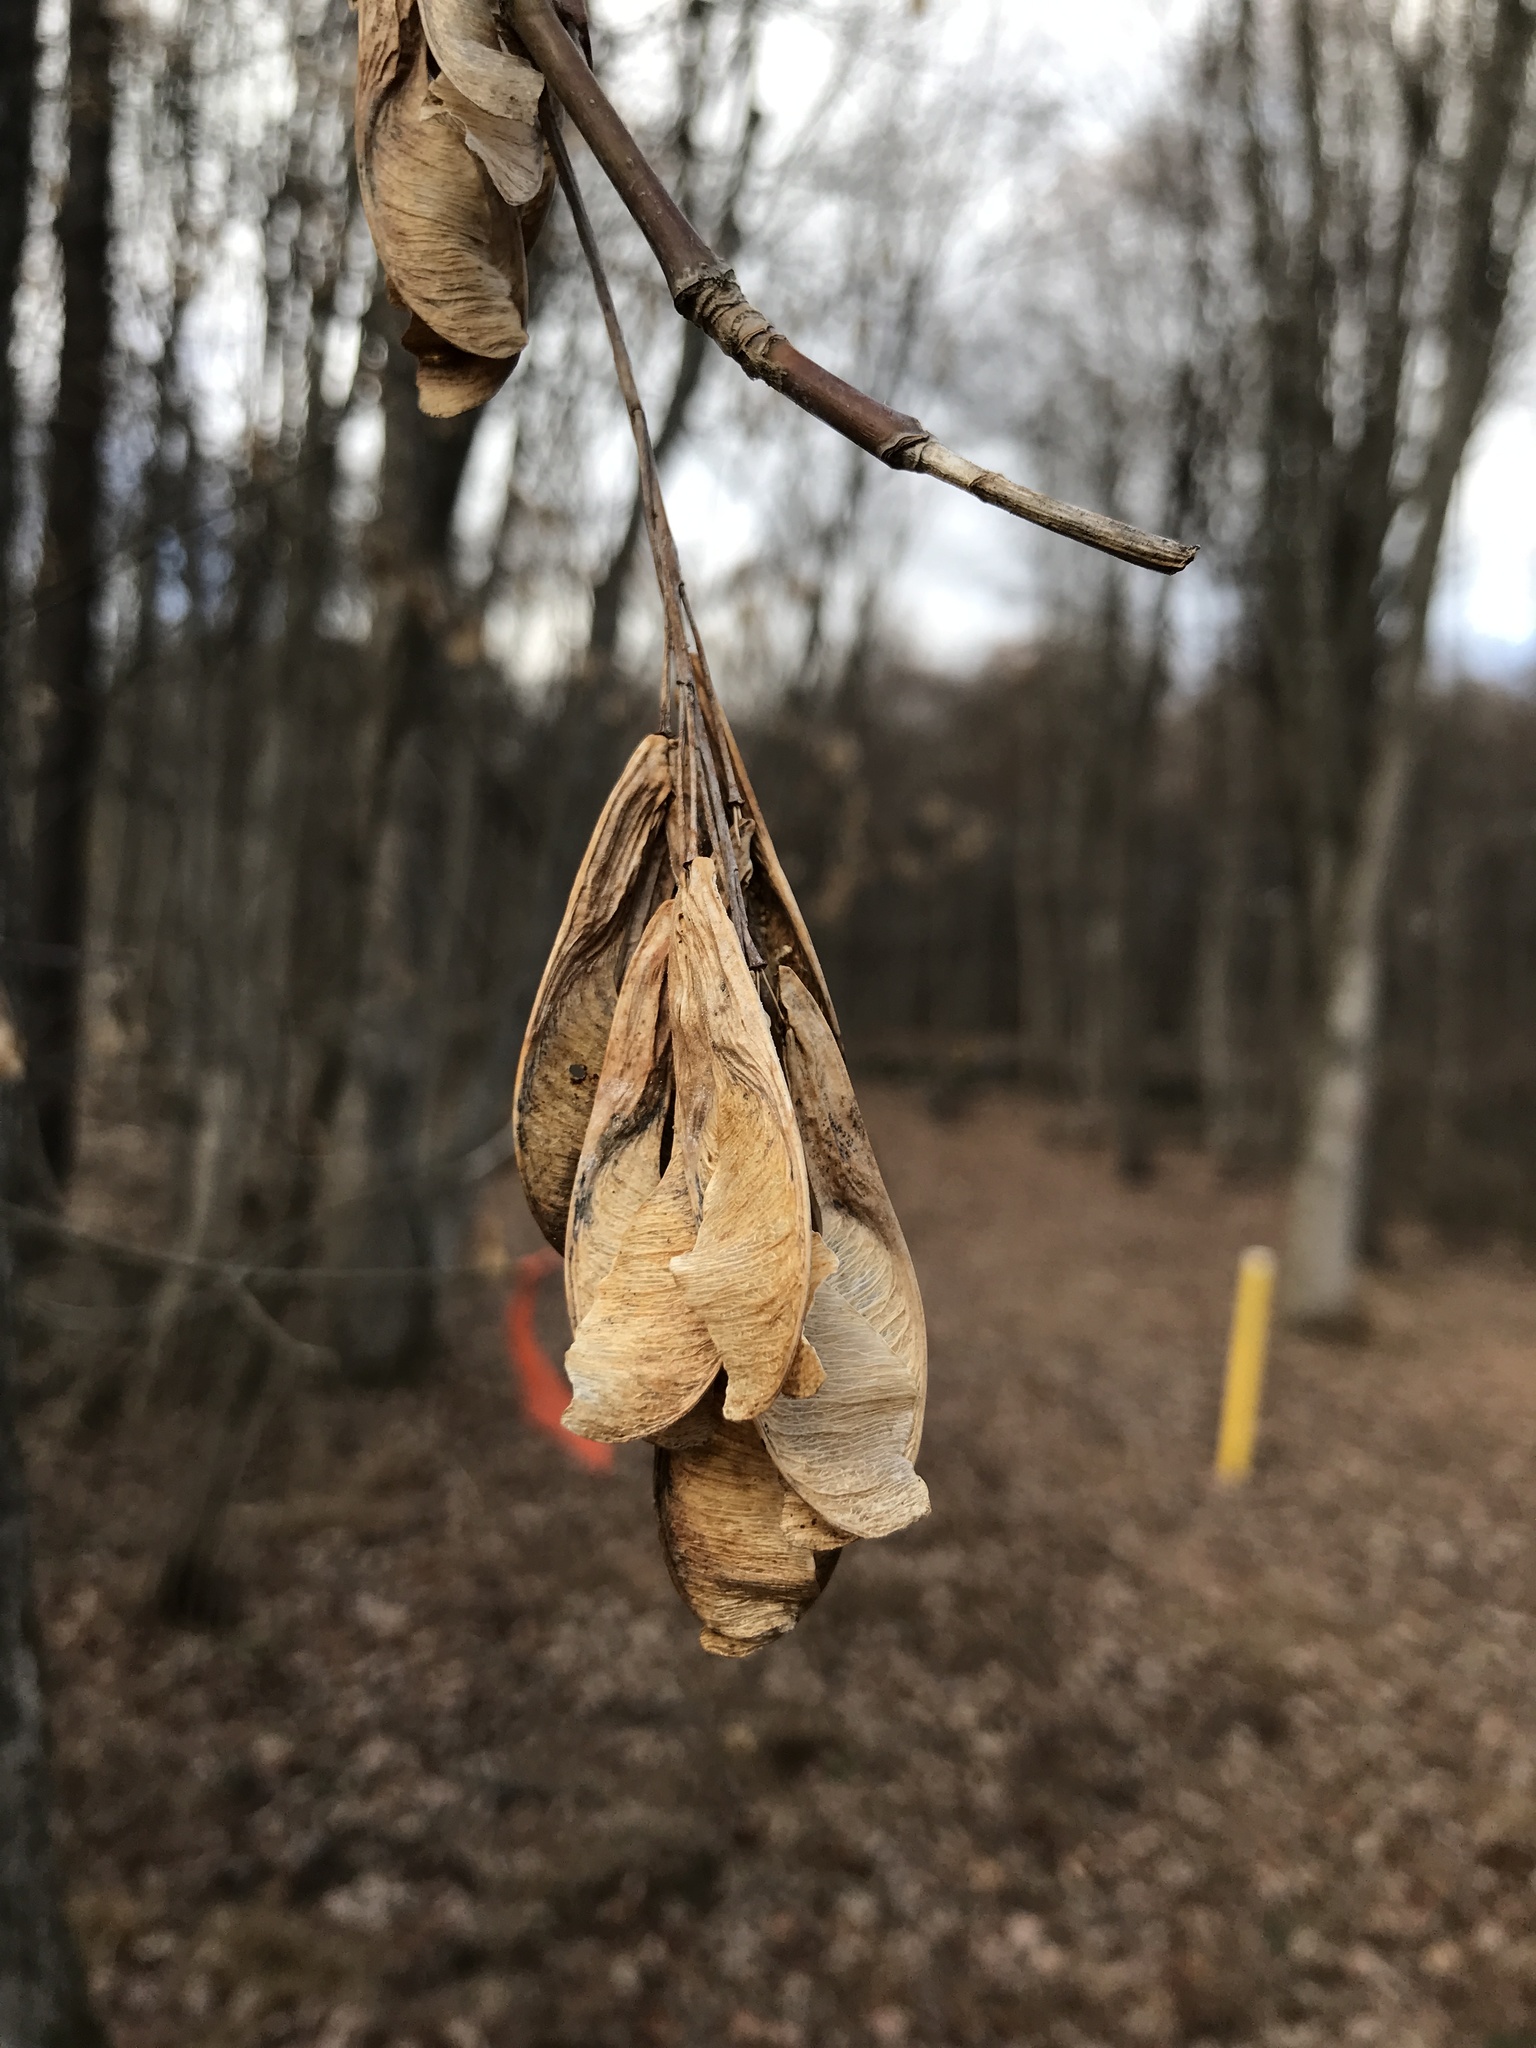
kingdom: Plantae
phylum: Tracheophyta
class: Magnoliopsida
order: Sapindales
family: Sapindaceae
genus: Acer
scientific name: Acer negundo
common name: Ashleaf maple
